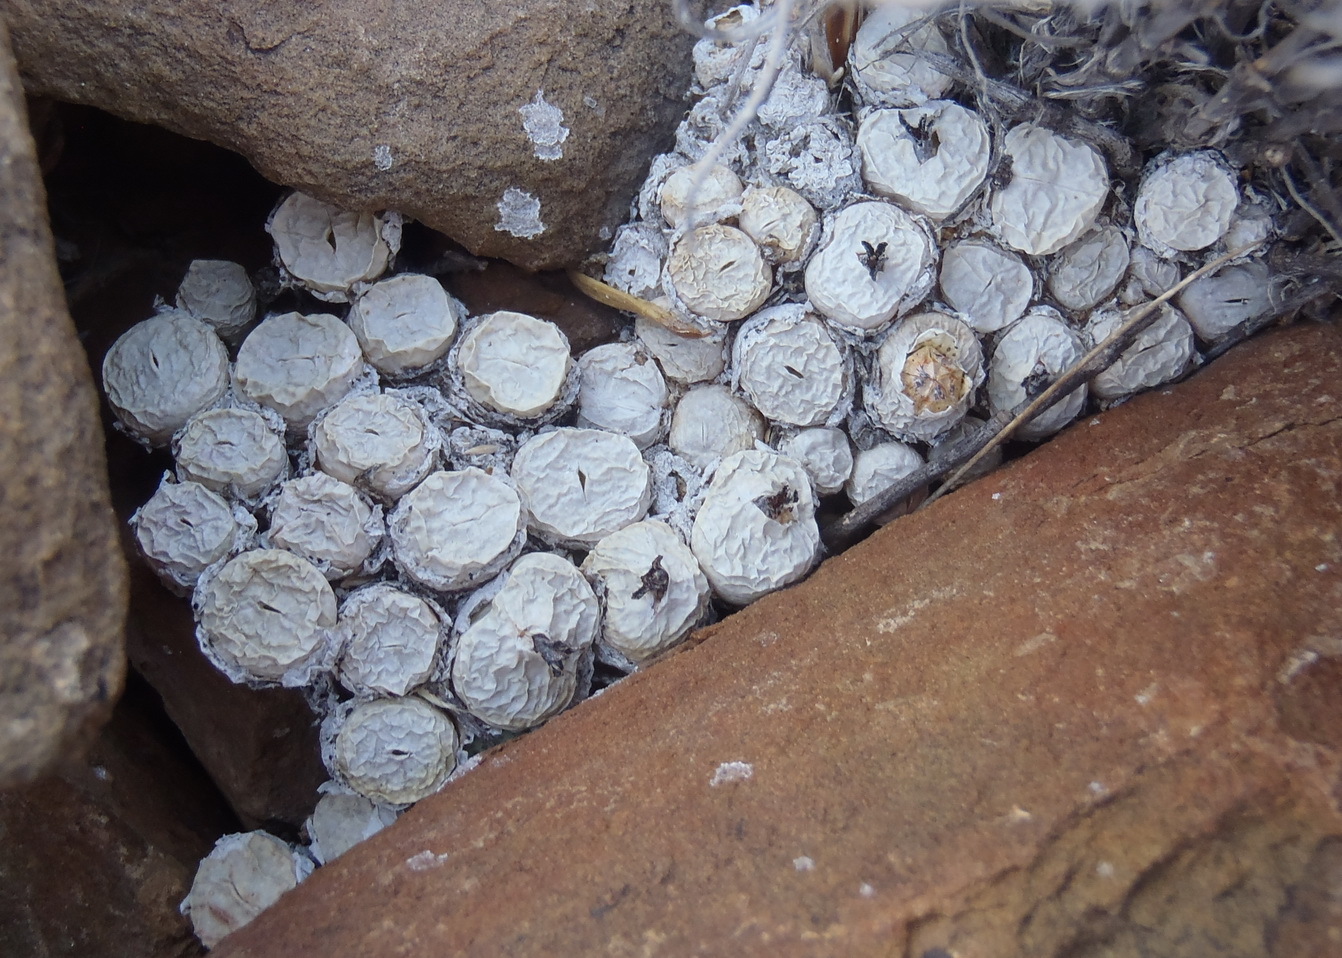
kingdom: Plantae
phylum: Tracheophyta
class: Magnoliopsida
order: Caryophyllales
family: Aizoaceae
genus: Conophytum
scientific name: Conophytum truncatum
